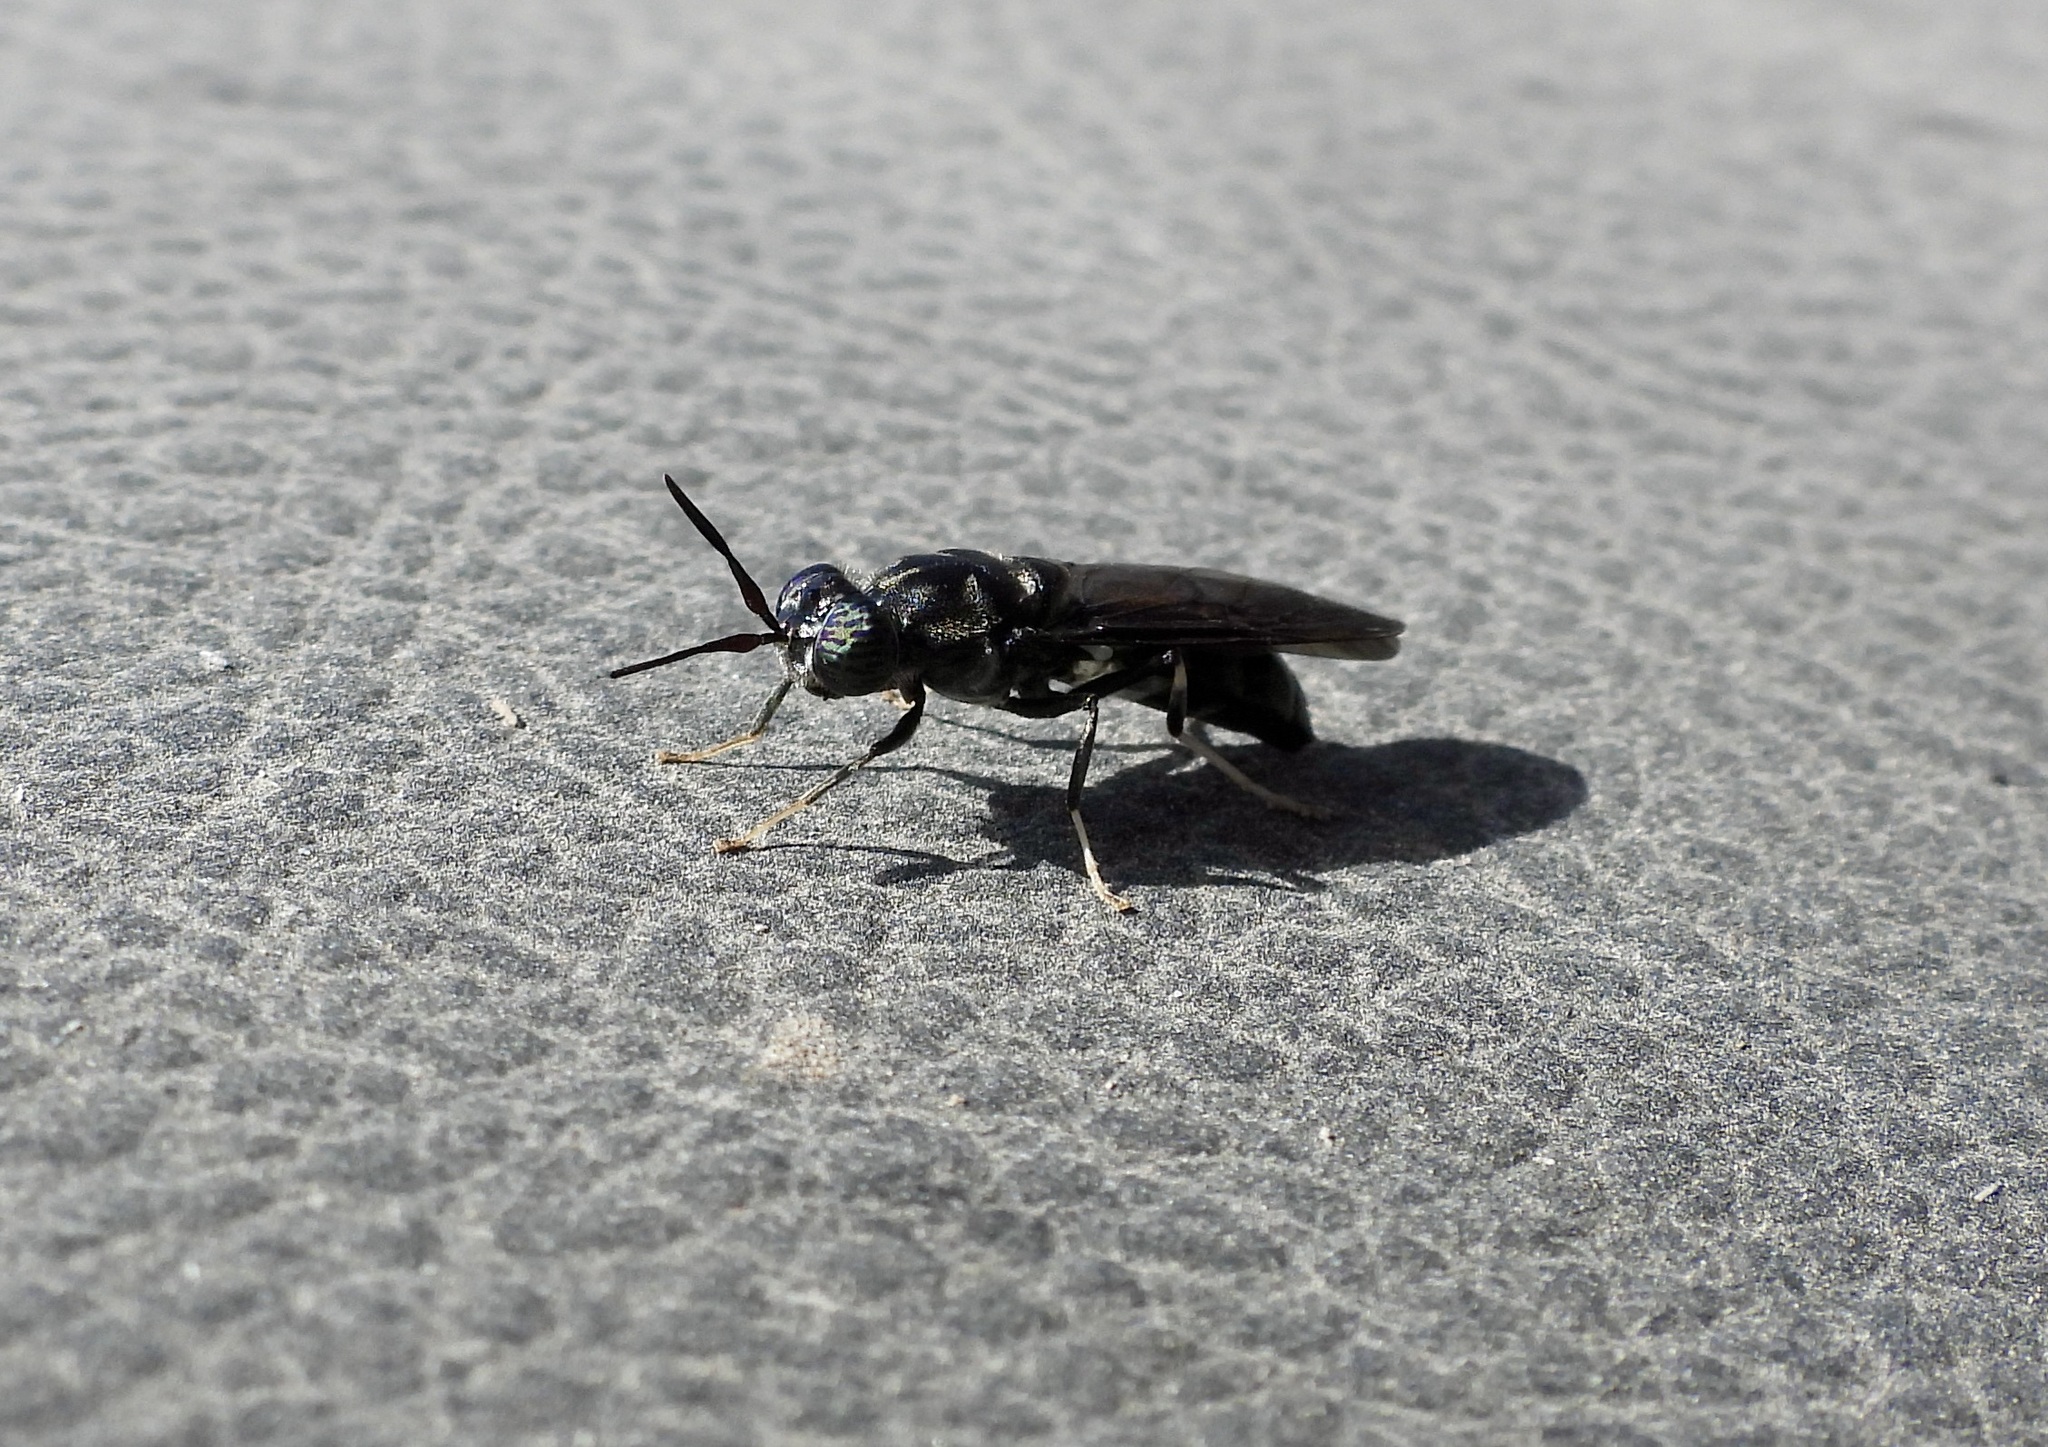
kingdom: Animalia
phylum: Arthropoda
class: Insecta
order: Diptera
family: Stratiomyidae
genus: Hermetia
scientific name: Hermetia illucens
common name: Black soldier fly
